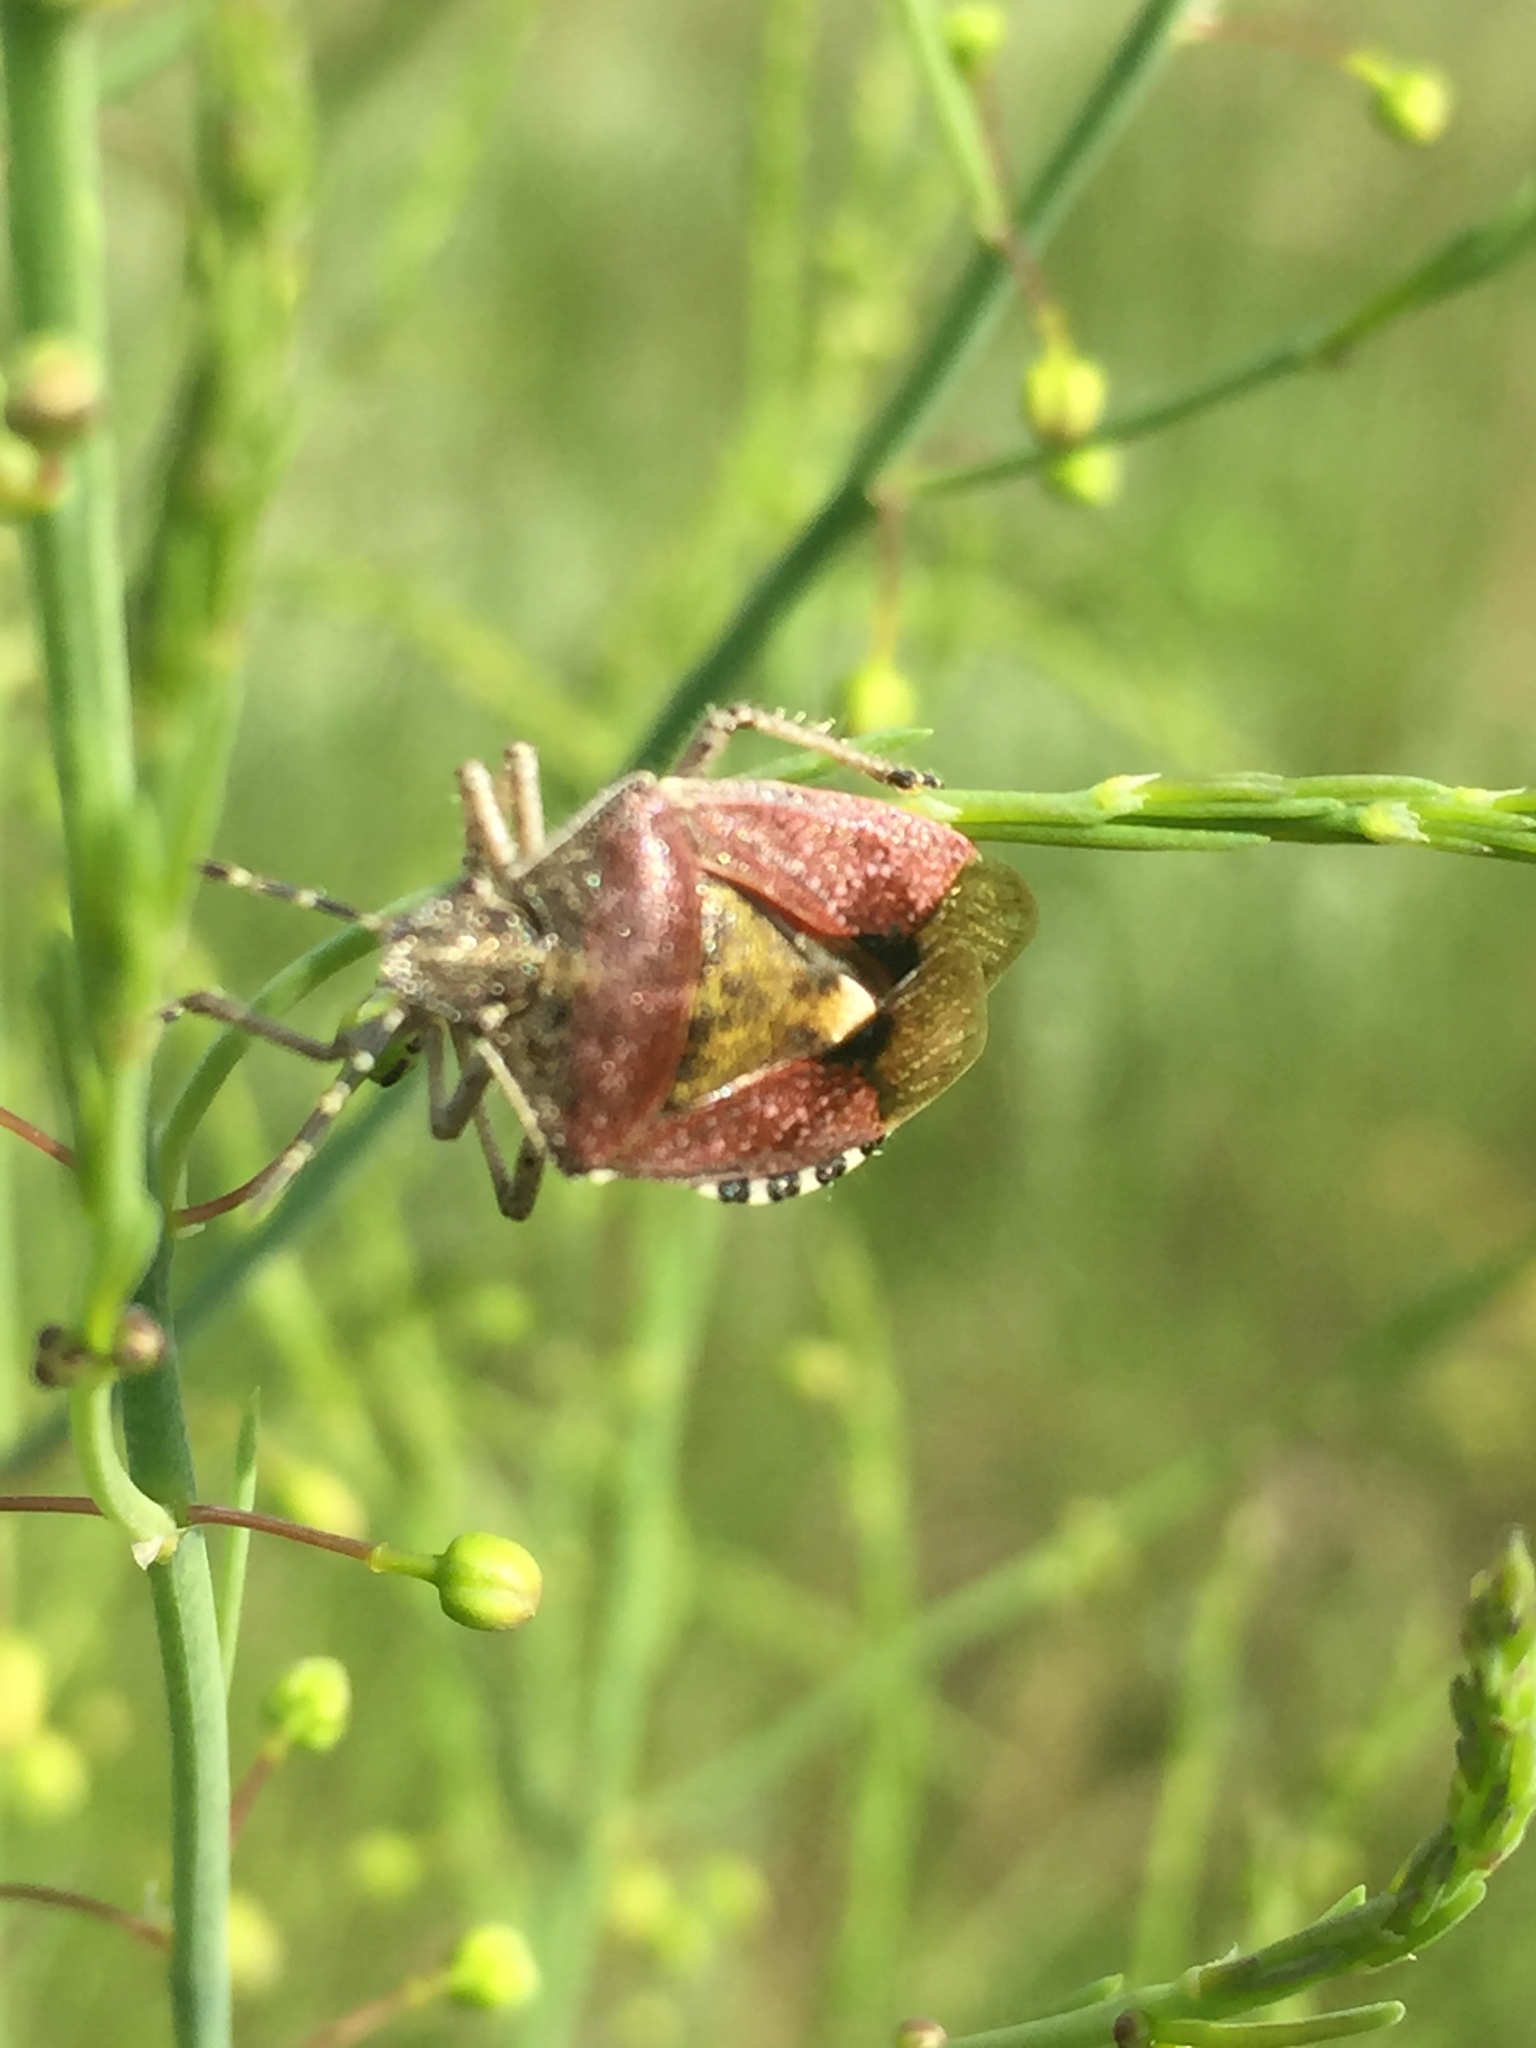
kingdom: Animalia
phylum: Arthropoda
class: Insecta
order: Hemiptera
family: Pentatomidae
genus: Dolycoris
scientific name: Dolycoris baccarum
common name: Sloe bug
